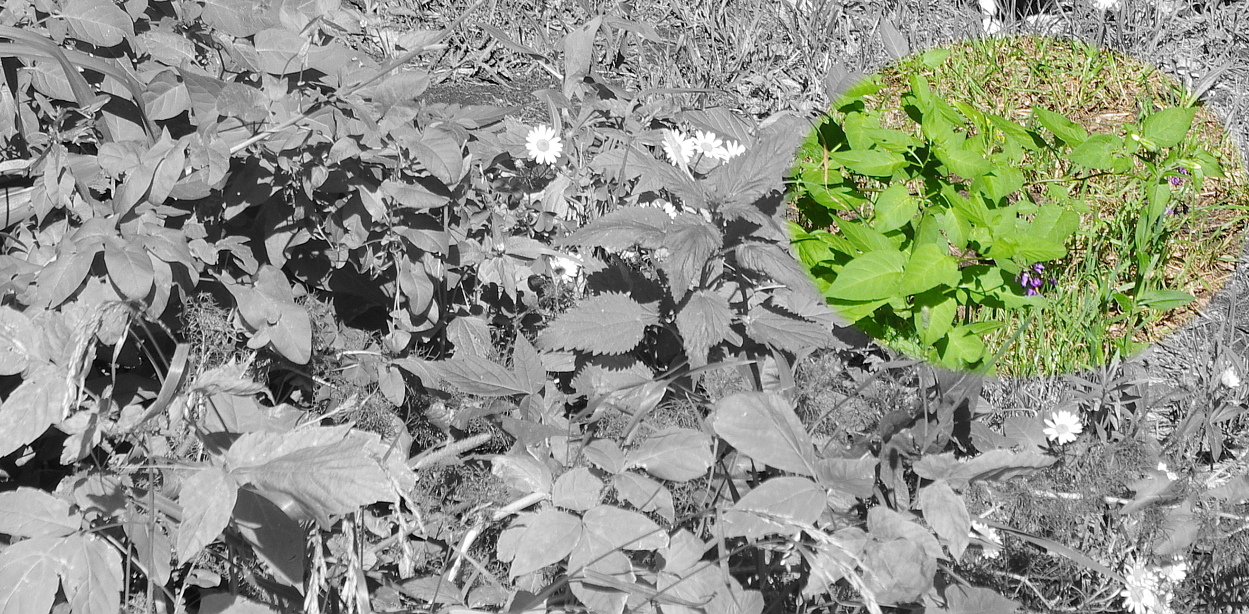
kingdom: Plantae
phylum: Tracheophyta
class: Magnoliopsida
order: Solanales
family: Solanaceae
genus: Solanum
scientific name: Solanum dulcamara
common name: Climbing nightshade
